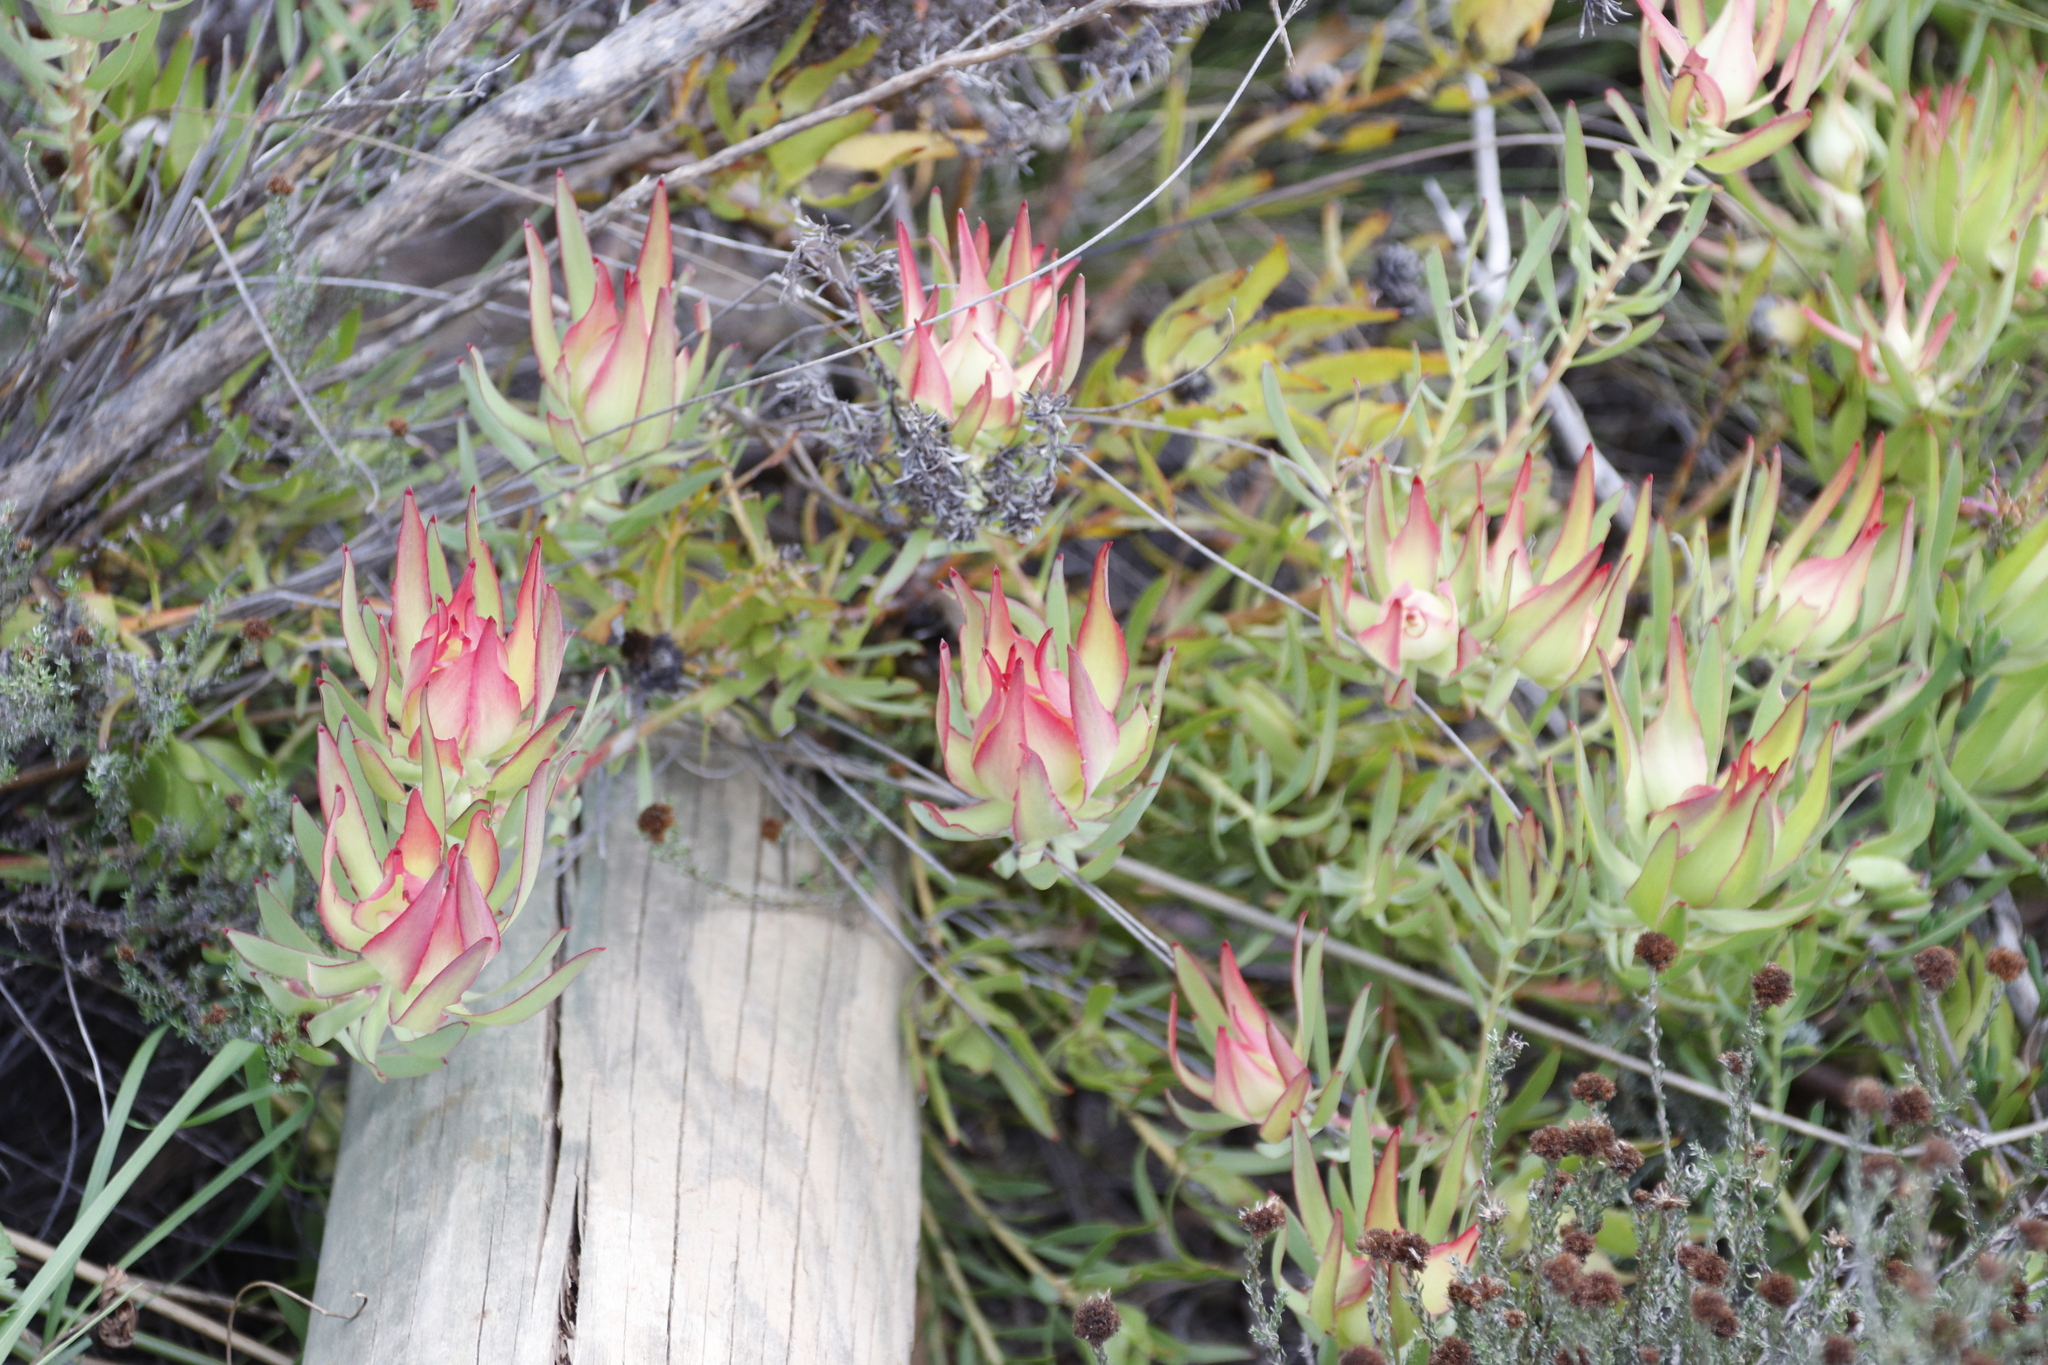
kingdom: Plantae
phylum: Tracheophyta
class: Magnoliopsida
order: Proteales
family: Proteaceae
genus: Leucadendron
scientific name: Leucadendron salignum
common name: Common sunshine conebush
